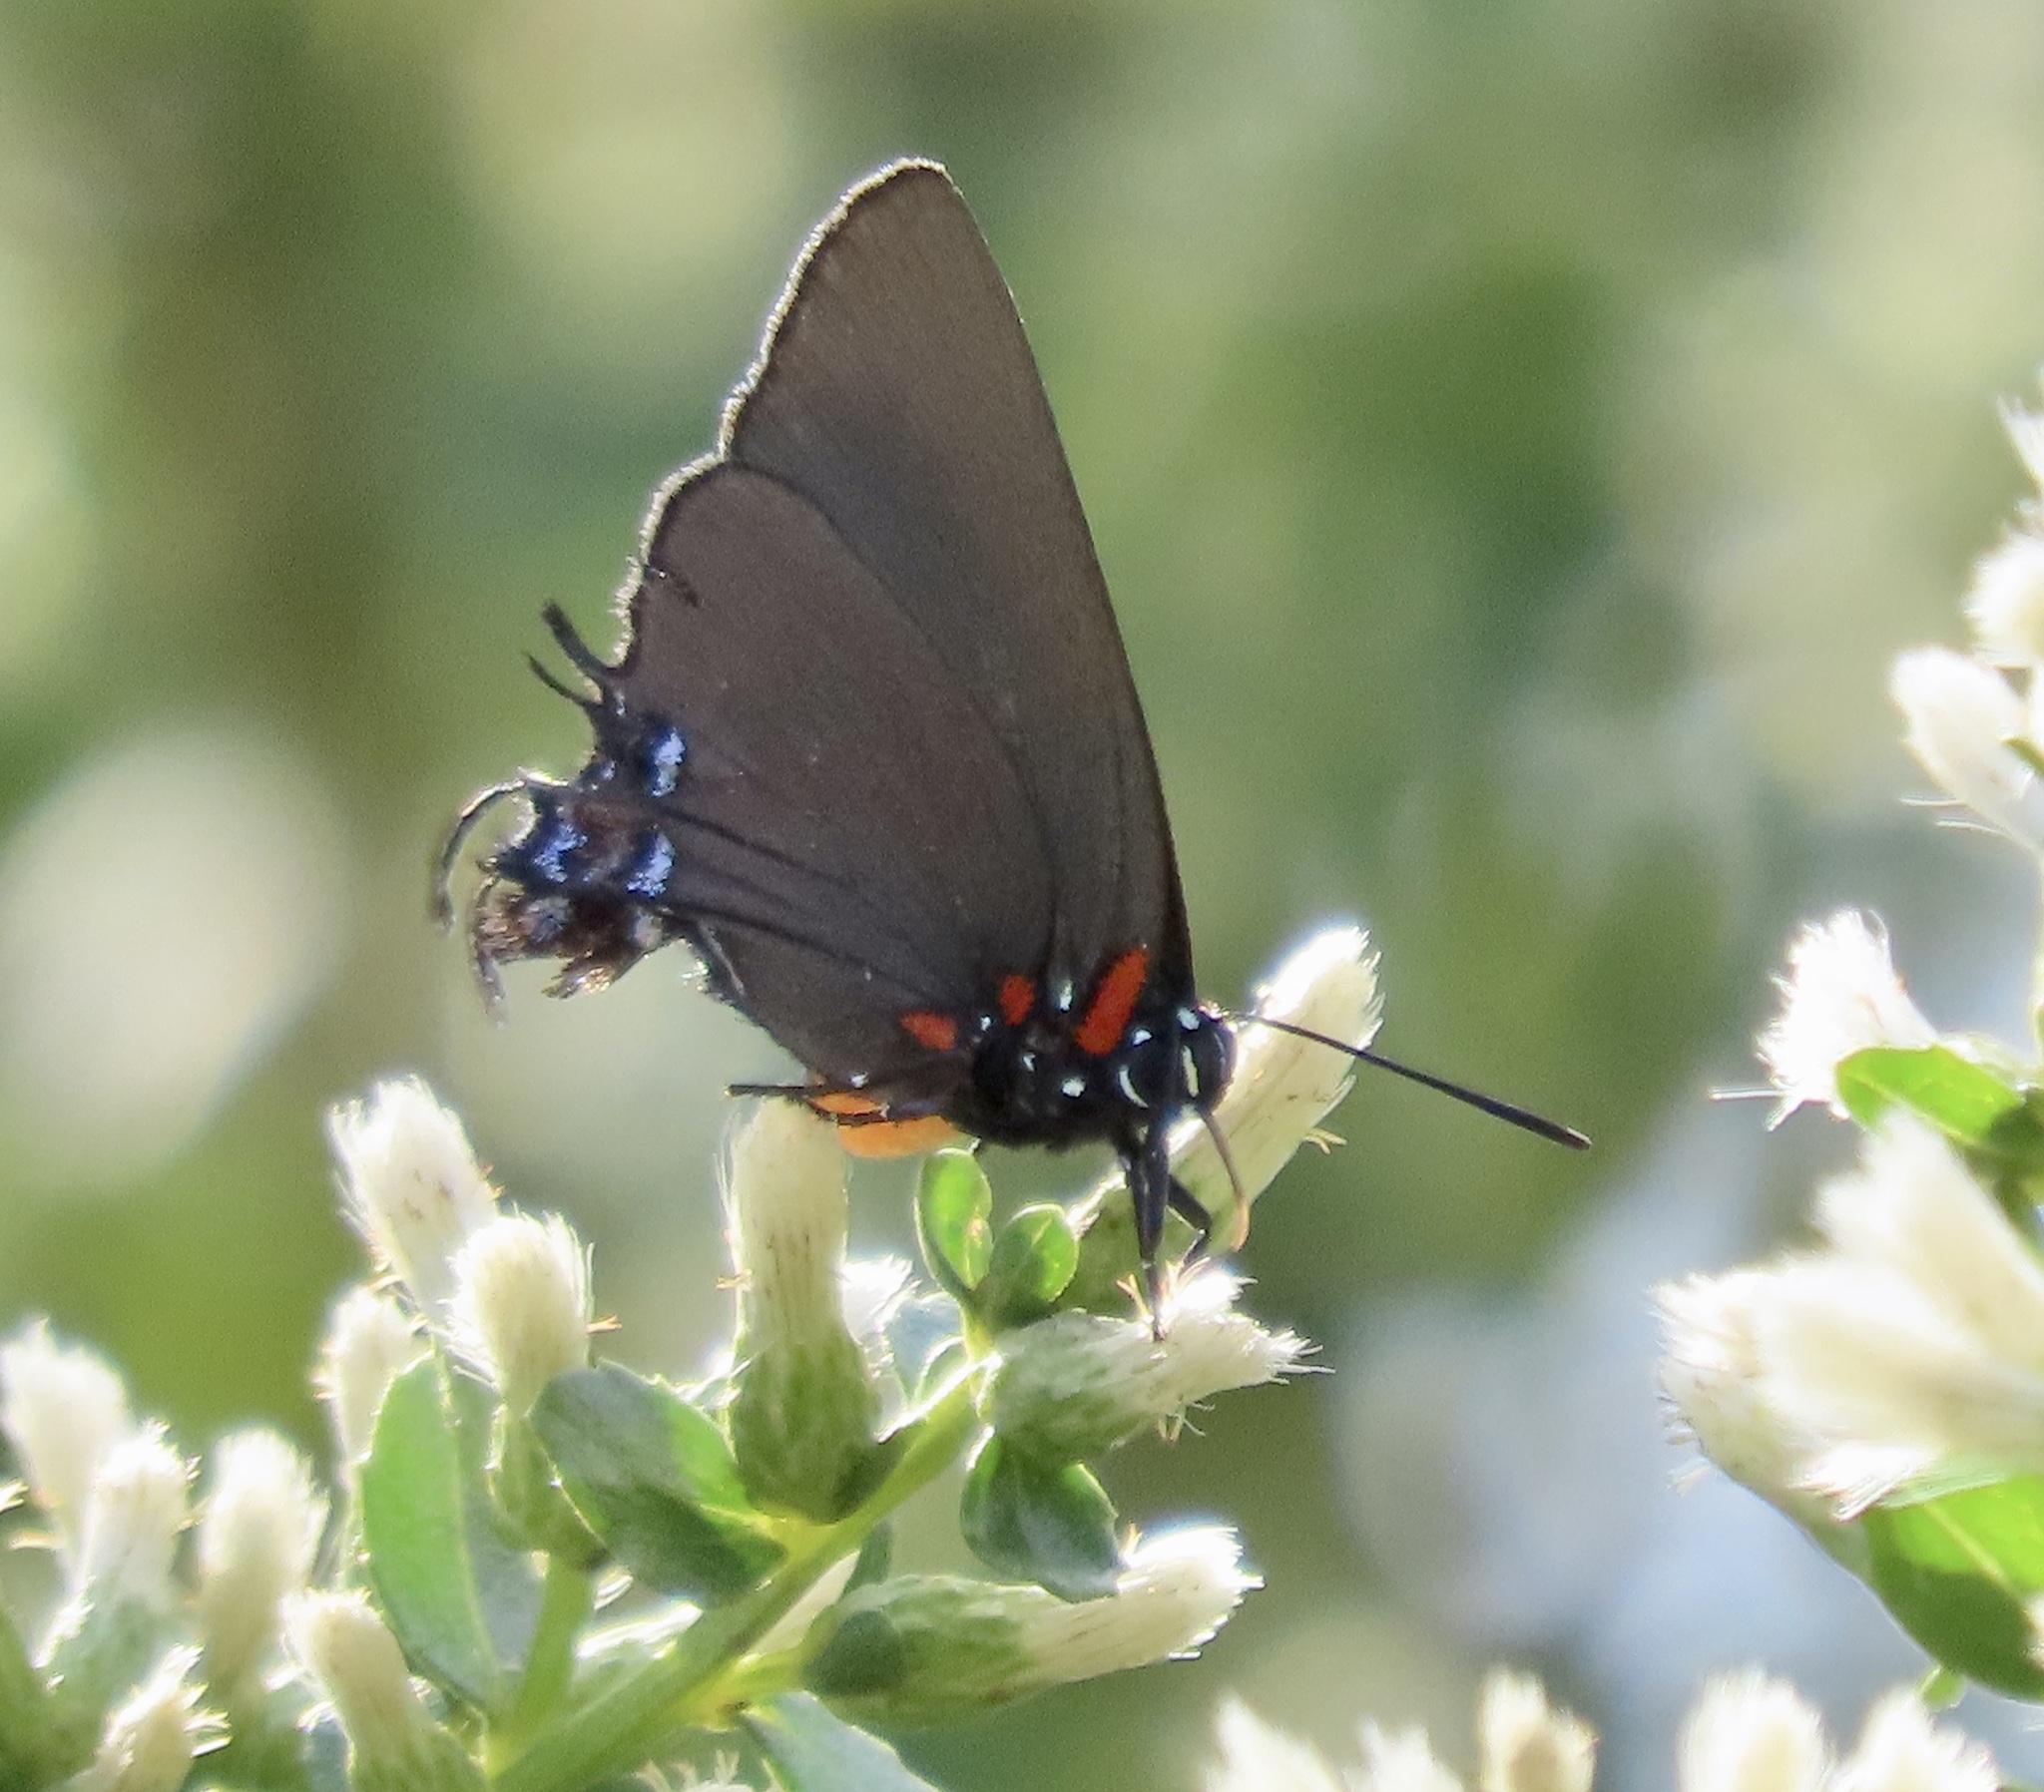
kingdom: Animalia
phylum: Arthropoda
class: Insecta
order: Lepidoptera
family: Lycaenidae
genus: Atlides
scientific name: Atlides halesus
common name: Great purple hairstreak
